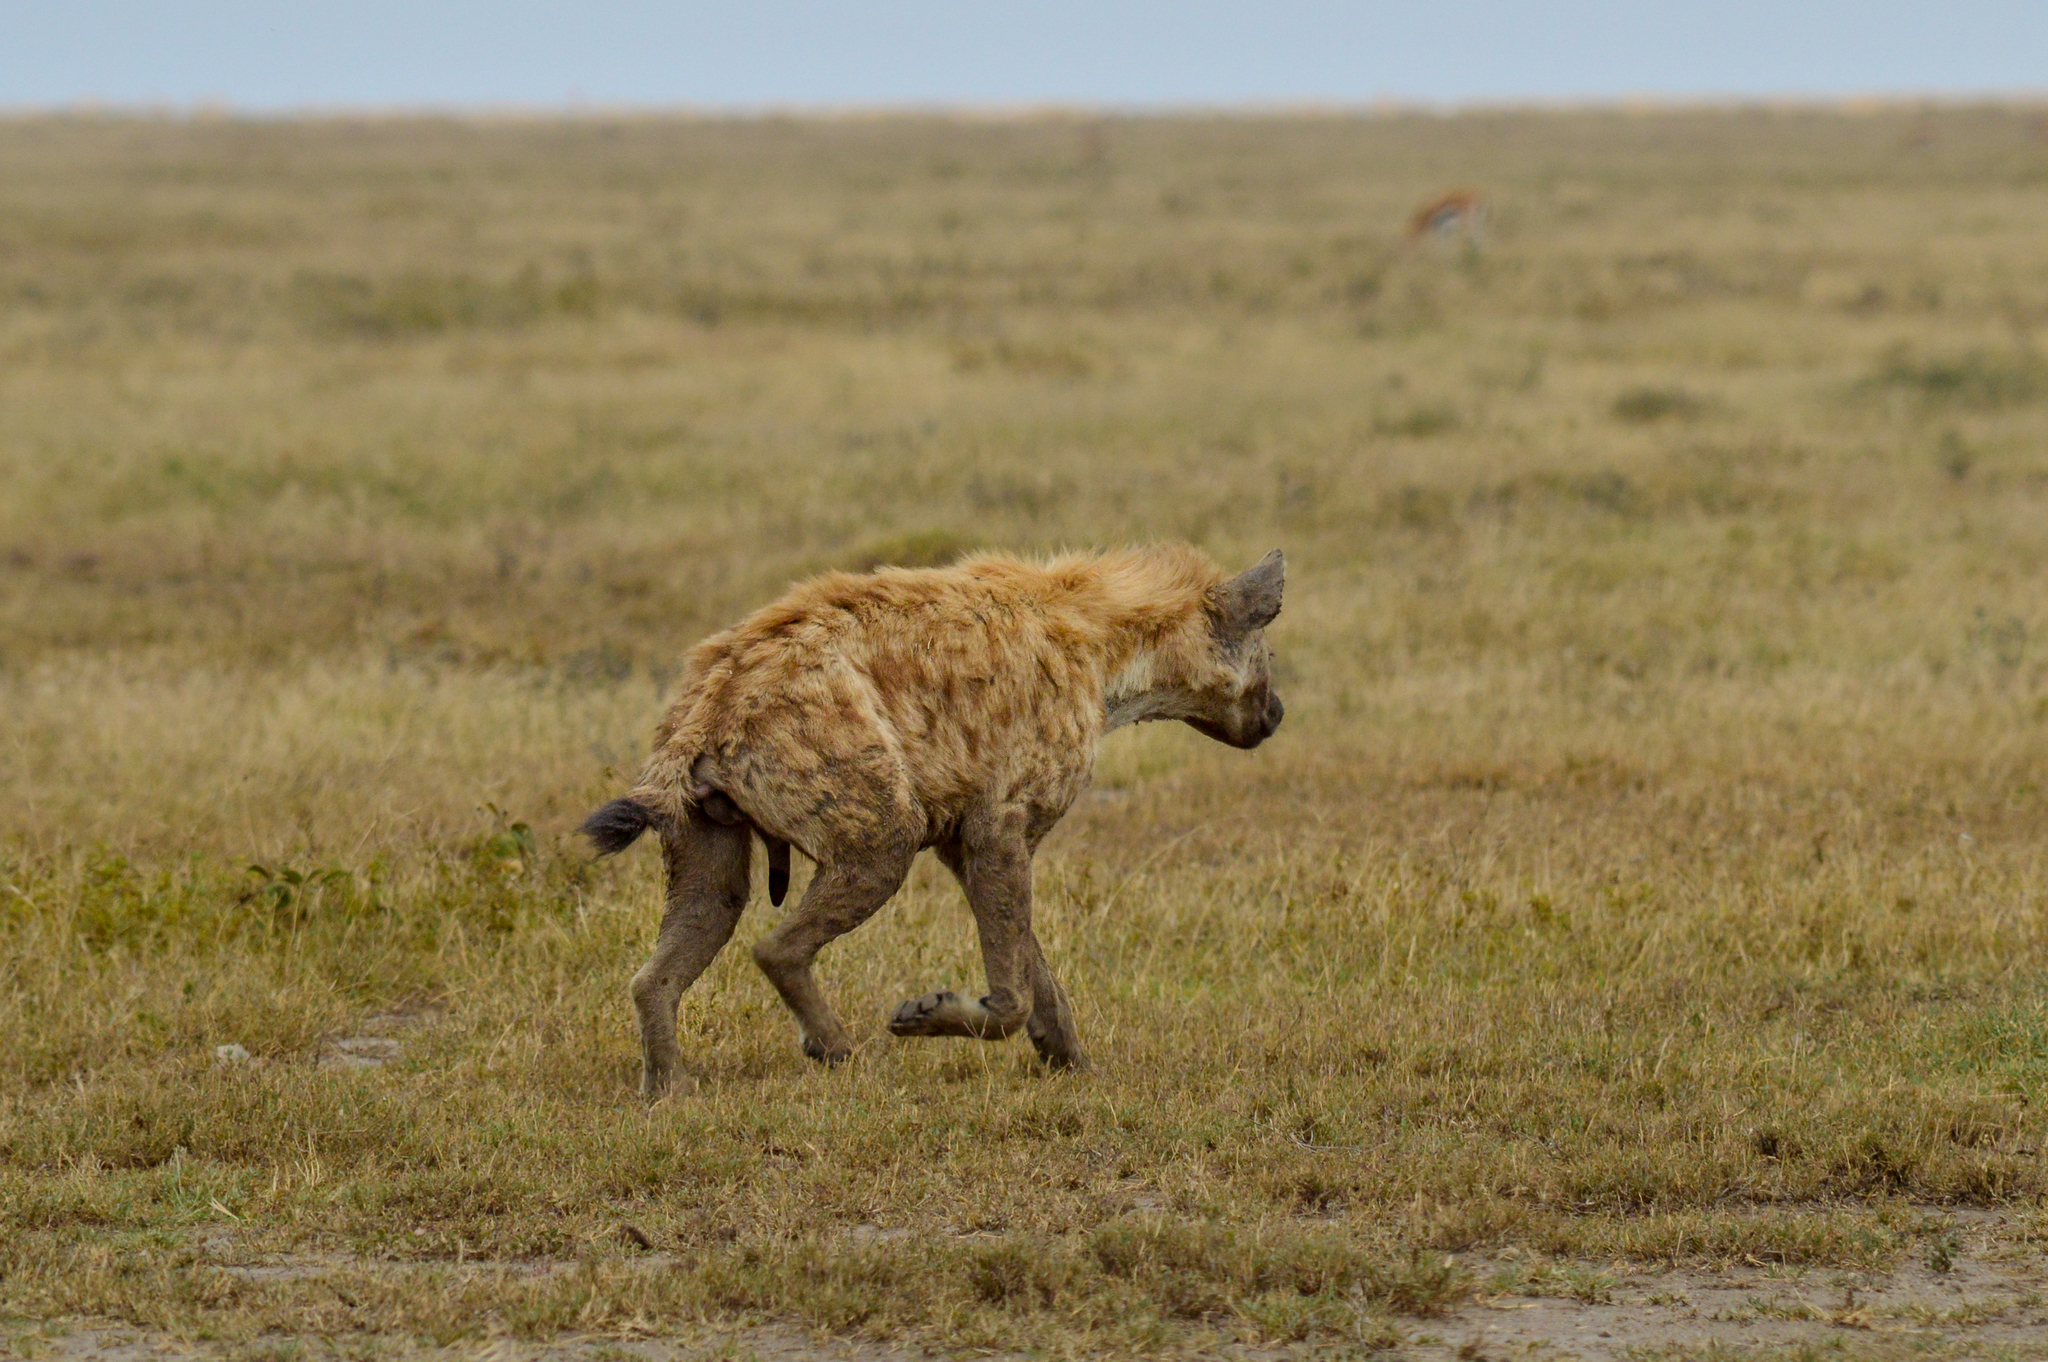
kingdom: Animalia
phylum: Chordata
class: Mammalia
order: Carnivora
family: Hyaenidae
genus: Crocuta
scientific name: Crocuta crocuta
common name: Spotted hyaena
